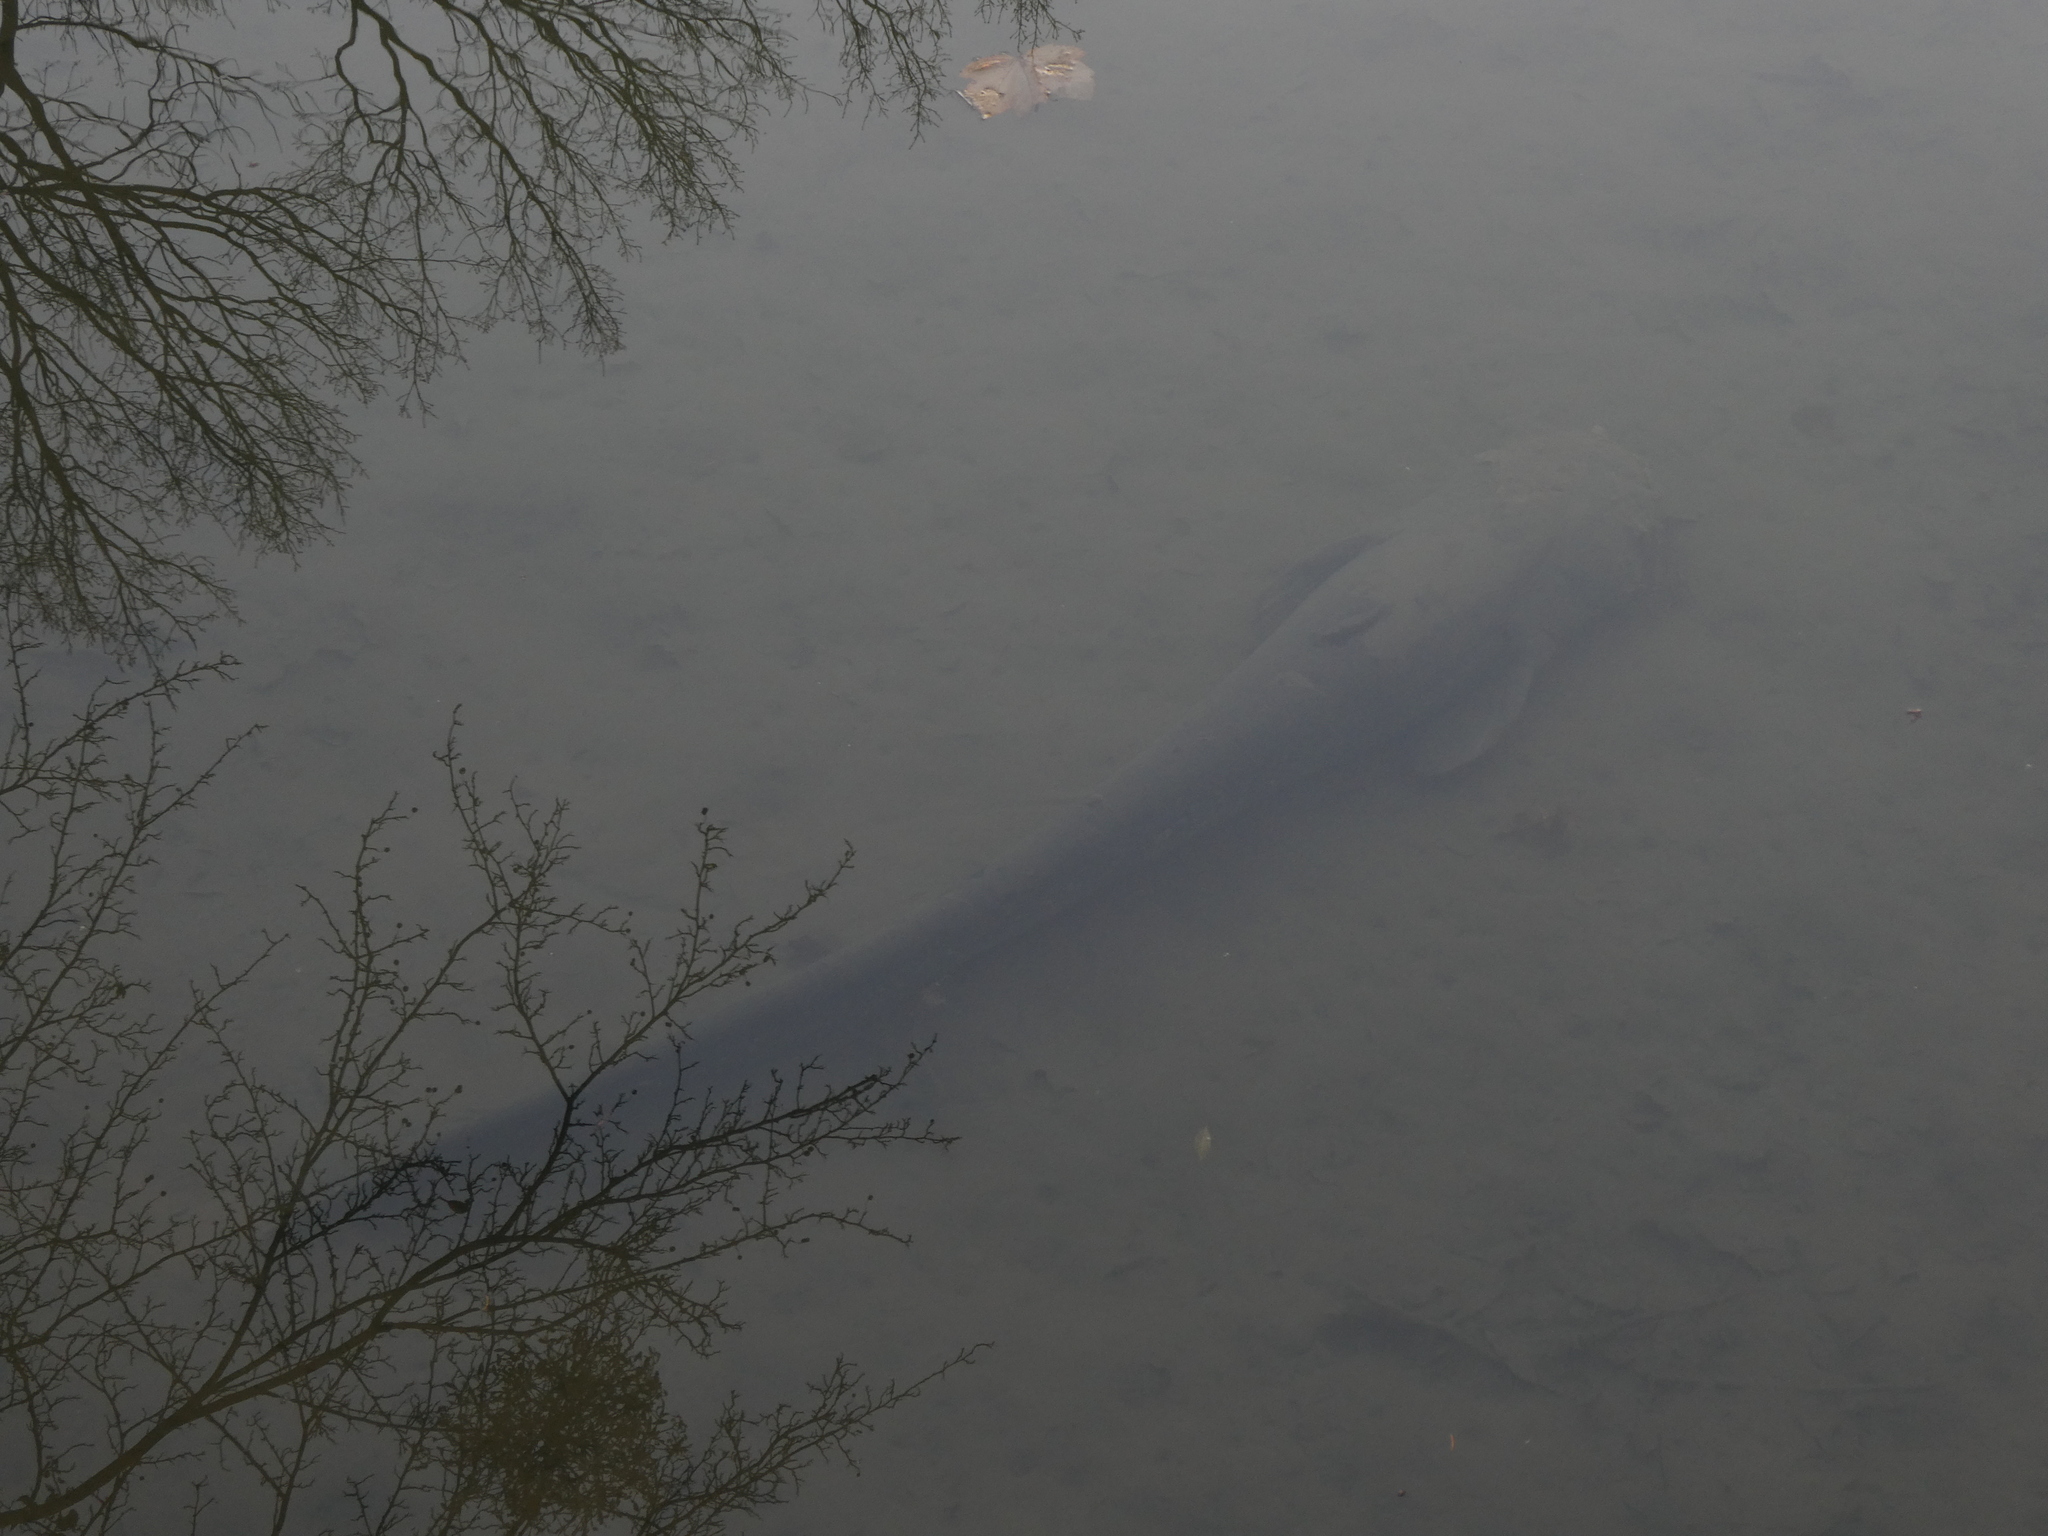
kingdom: Animalia
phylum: Chordata
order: Siluriformes
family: Siluridae
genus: Silurus
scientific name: Silurus glanis
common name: Wels
